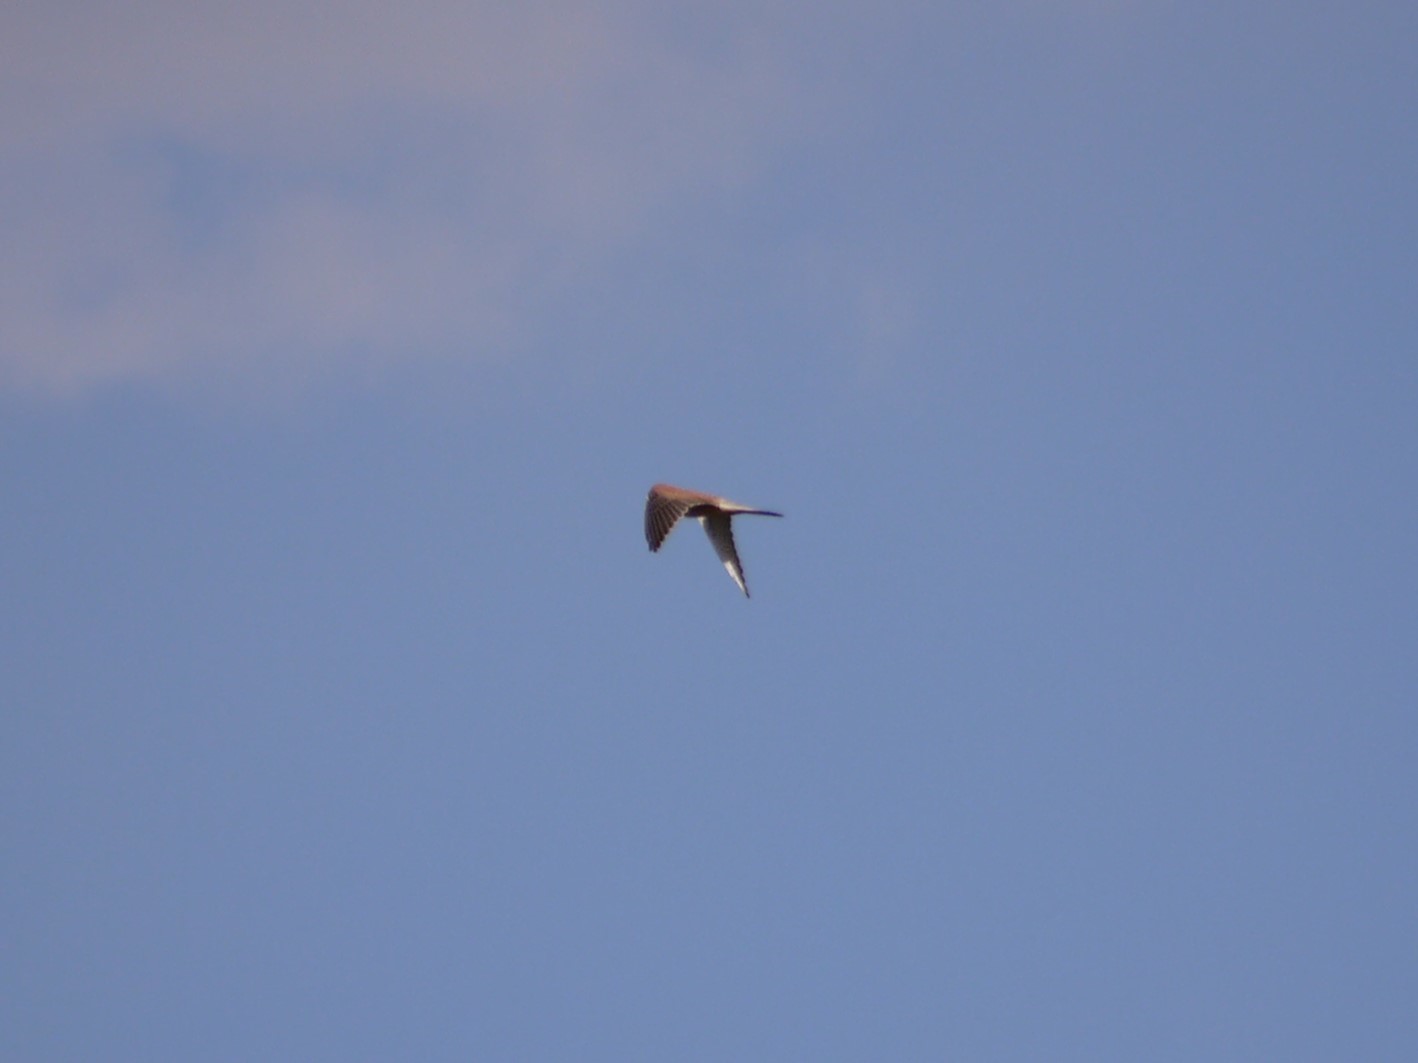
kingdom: Animalia
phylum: Chordata
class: Aves
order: Falconiformes
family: Falconidae
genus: Falco
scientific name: Falco tinnunculus
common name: Common kestrel
